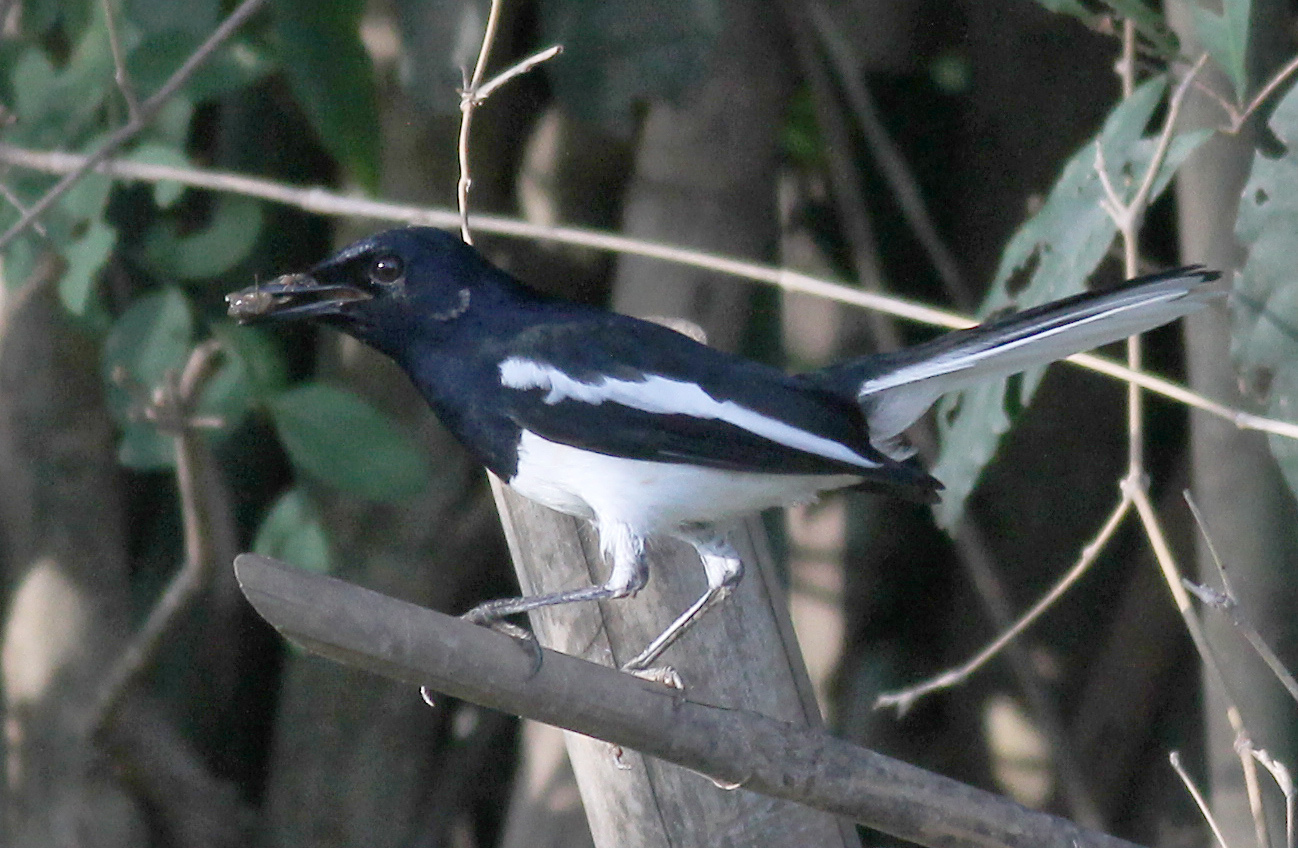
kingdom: Animalia
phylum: Chordata
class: Aves
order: Passeriformes
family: Muscicapidae
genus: Copsychus
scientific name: Copsychus saularis
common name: Oriental magpie-robin
